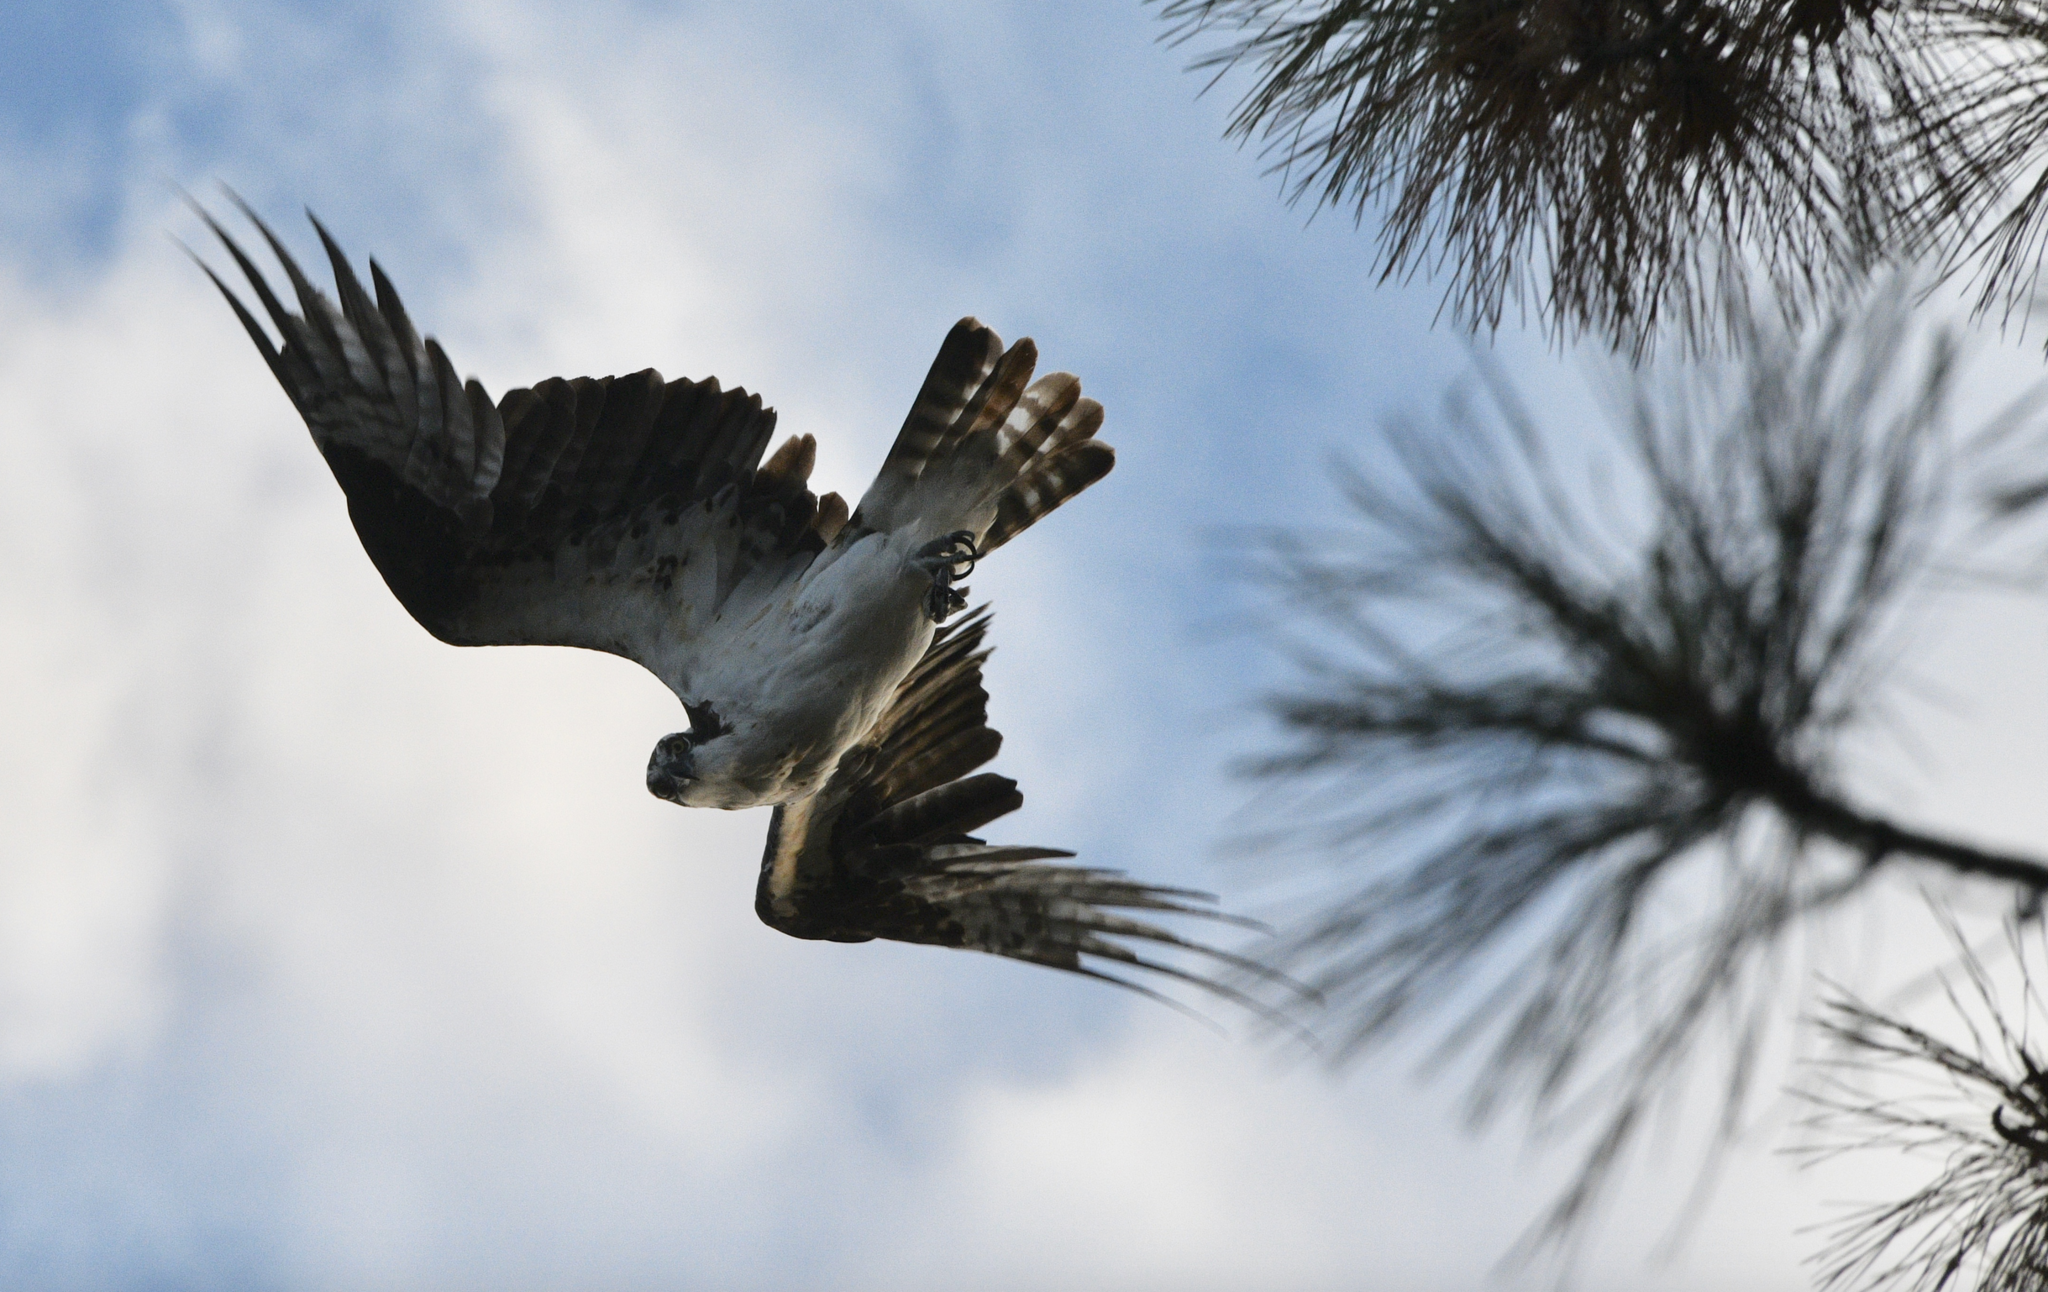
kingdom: Animalia
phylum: Chordata
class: Aves
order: Accipitriformes
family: Pandionidae
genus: Pandion
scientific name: Pandion haliaetus
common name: Osprey
